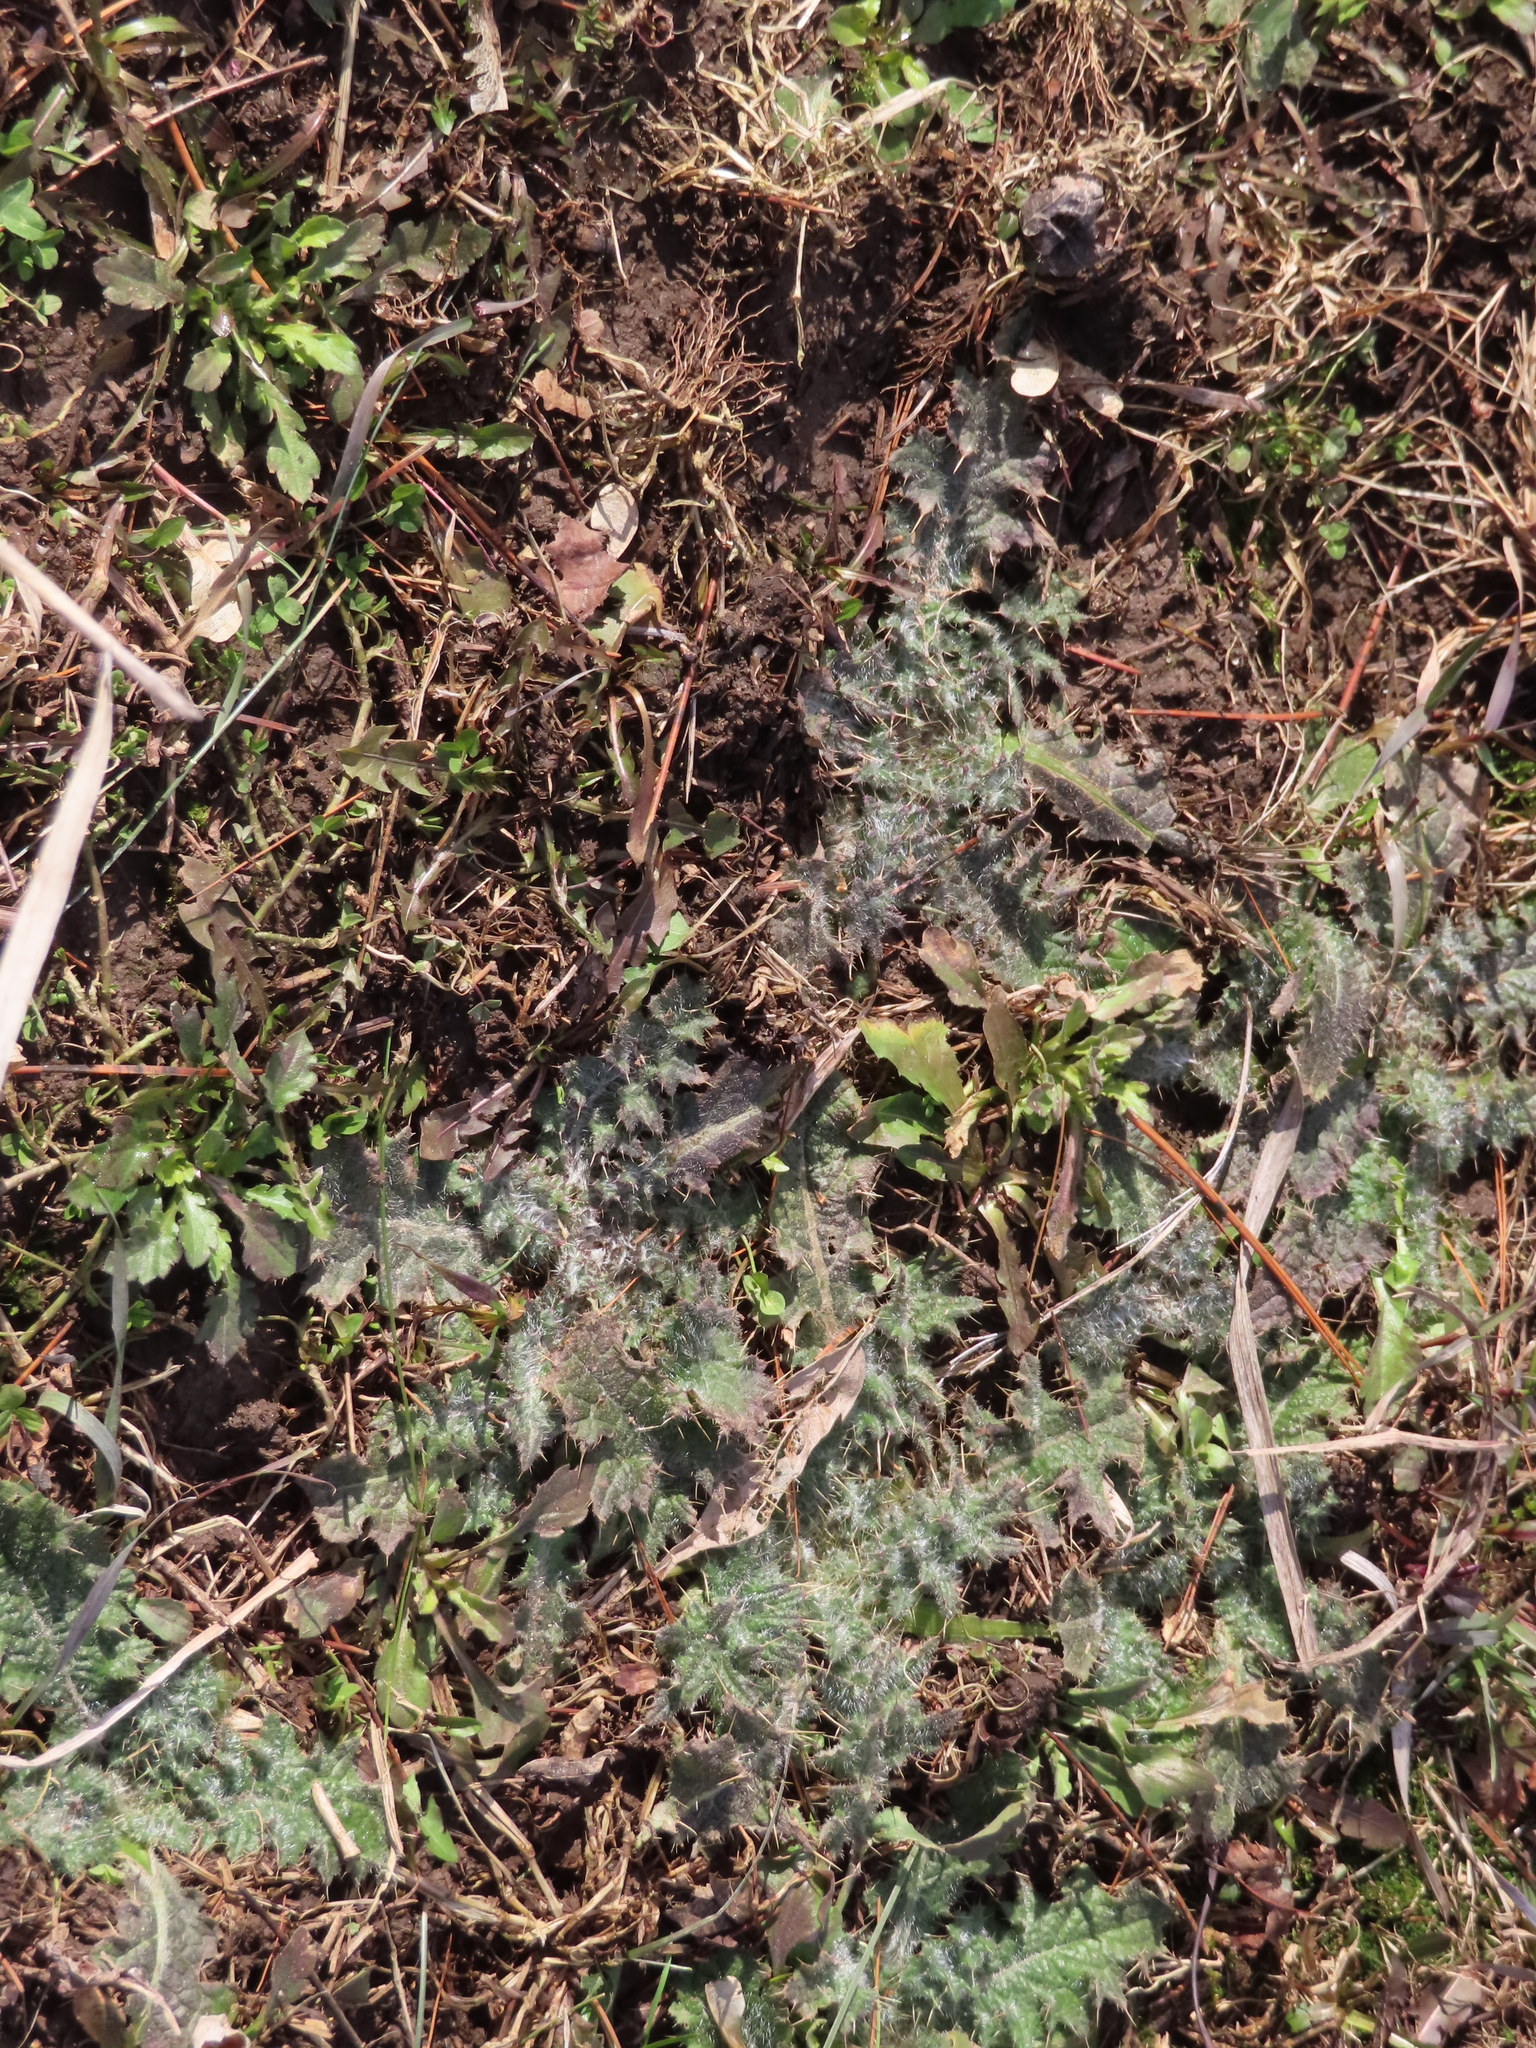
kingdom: Plantae
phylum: Tracheophyta
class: Magnoliopsida
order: Asterales
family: Asteraceae
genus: Cirsium
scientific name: Cirsium vulgare
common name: Bull thistle
